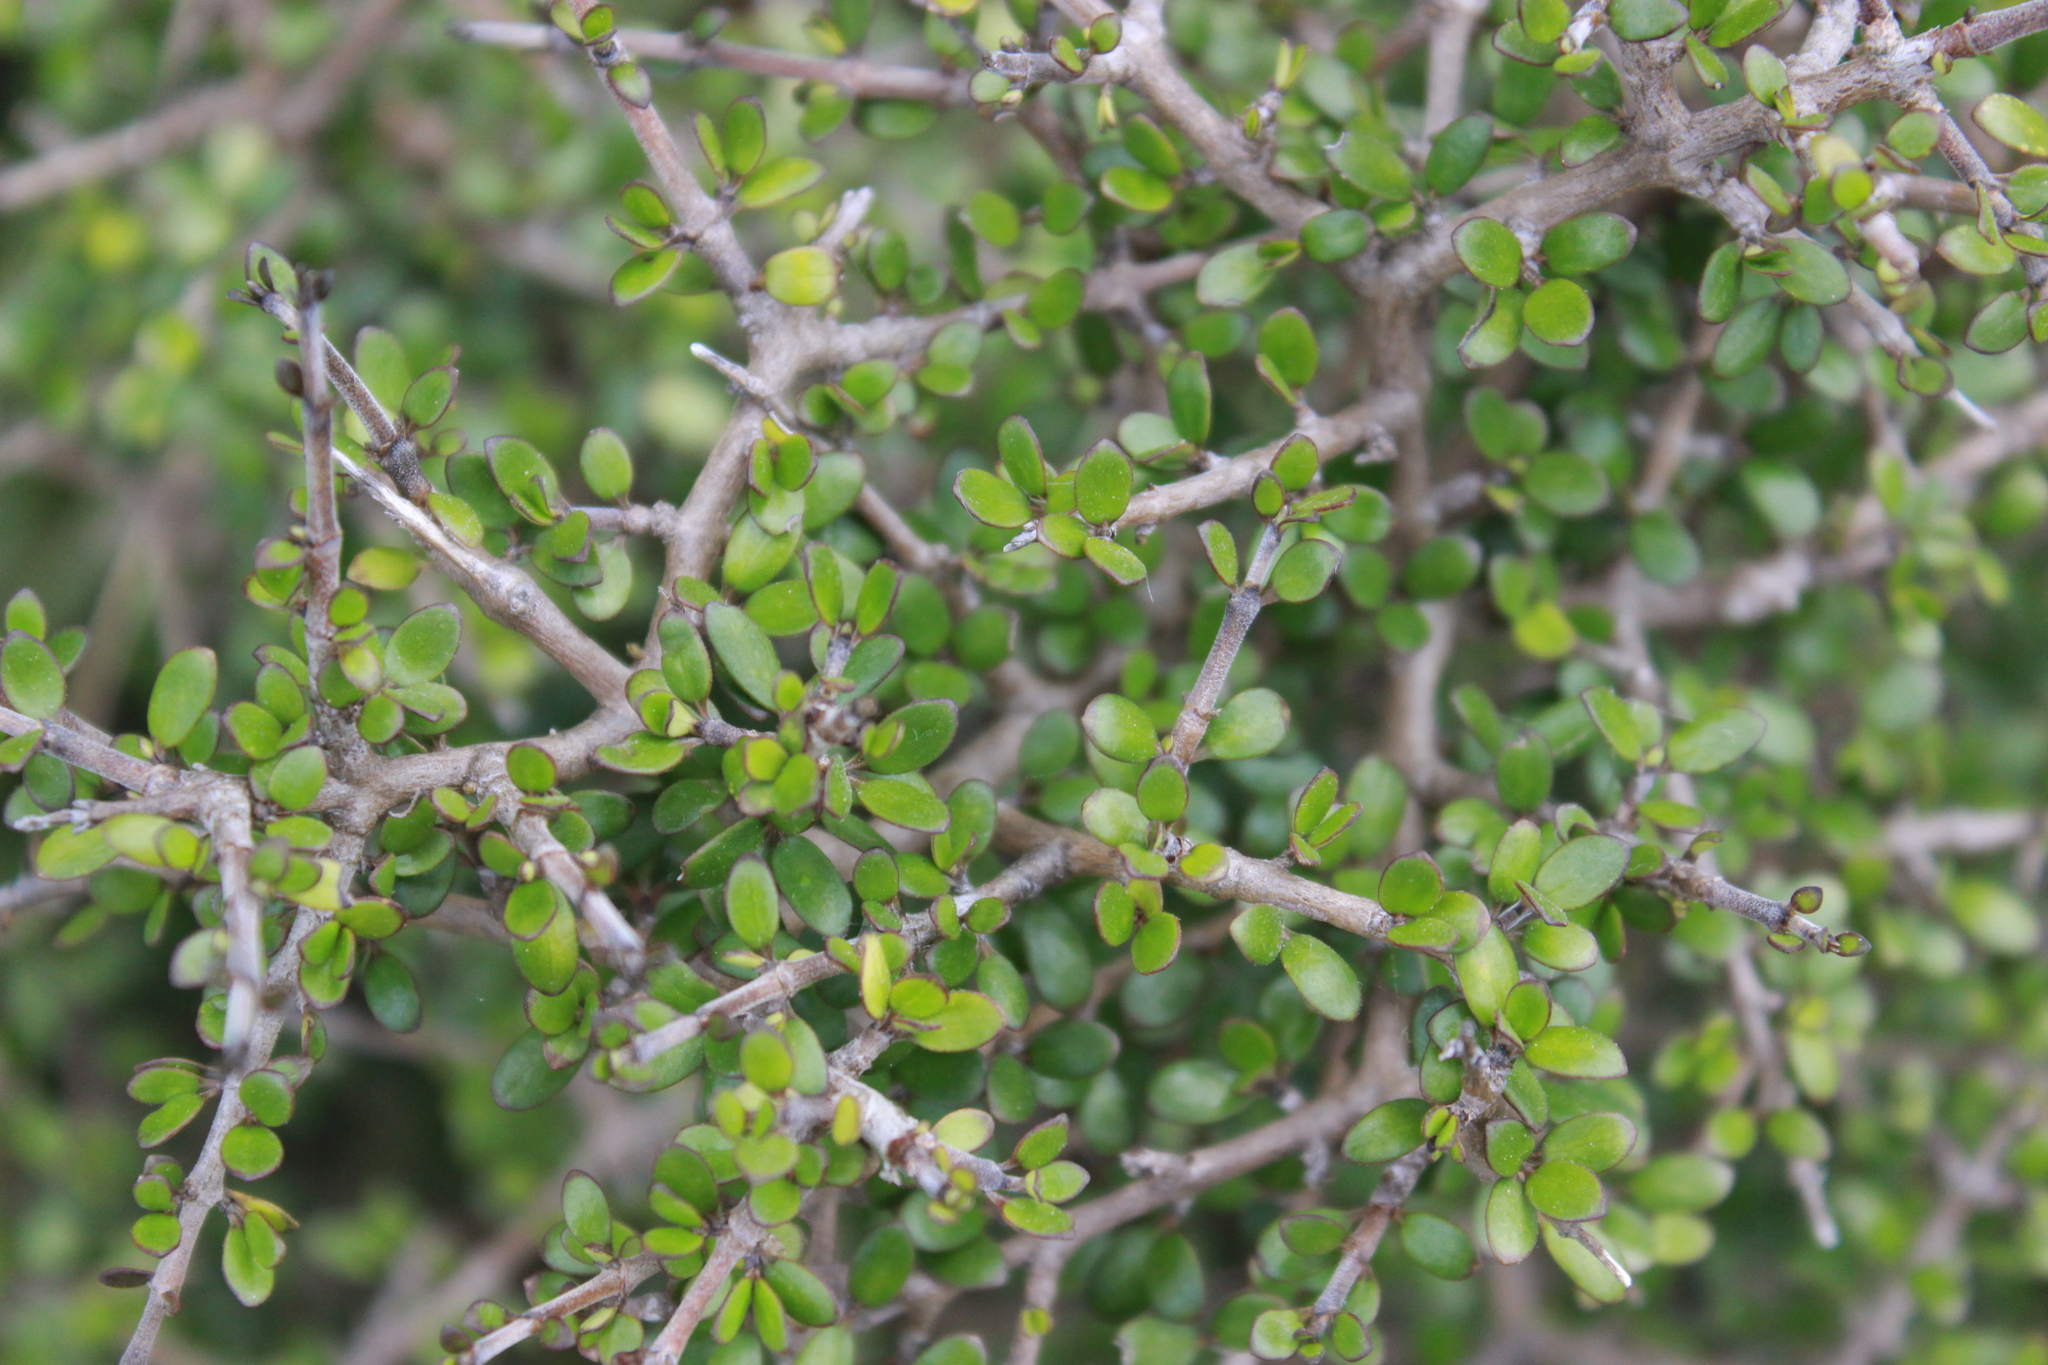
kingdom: Plantae
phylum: Tracheophyta
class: Magnoliopsida
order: Gentianales
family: Rubiaceae
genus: Coprosma
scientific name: Coprosma propinqua
